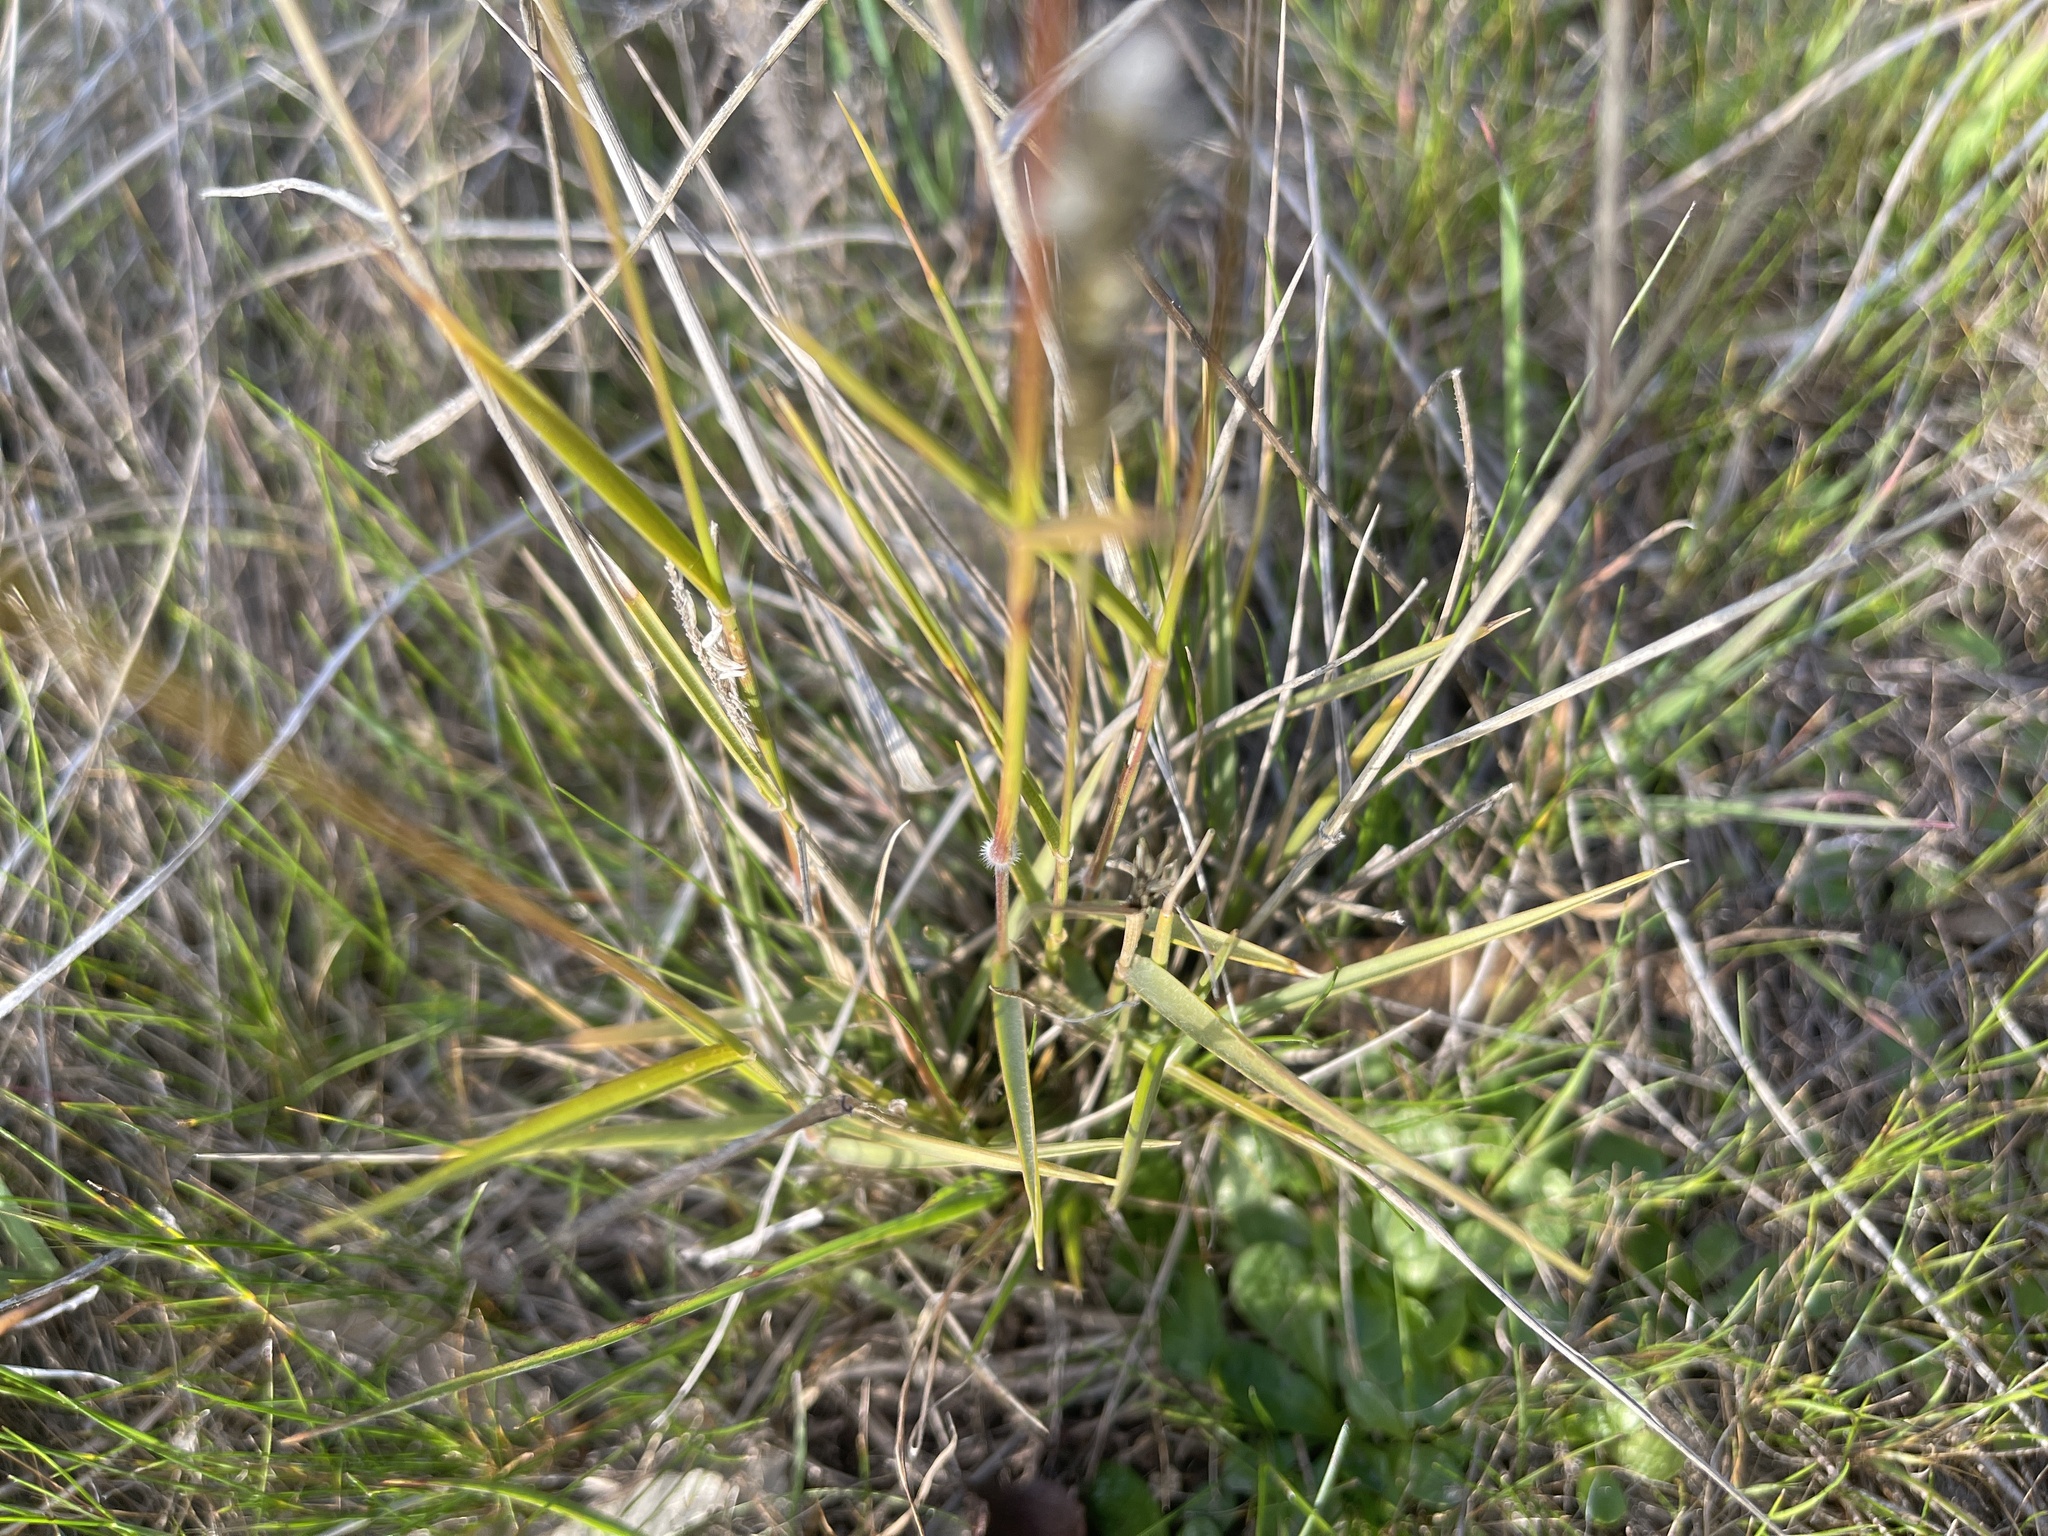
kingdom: Plantae
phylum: Tracheophyta
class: Liliopsida
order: Poales
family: Poaceae
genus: Enneapogon
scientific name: Enneapogon nigricans
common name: Pappus grass
